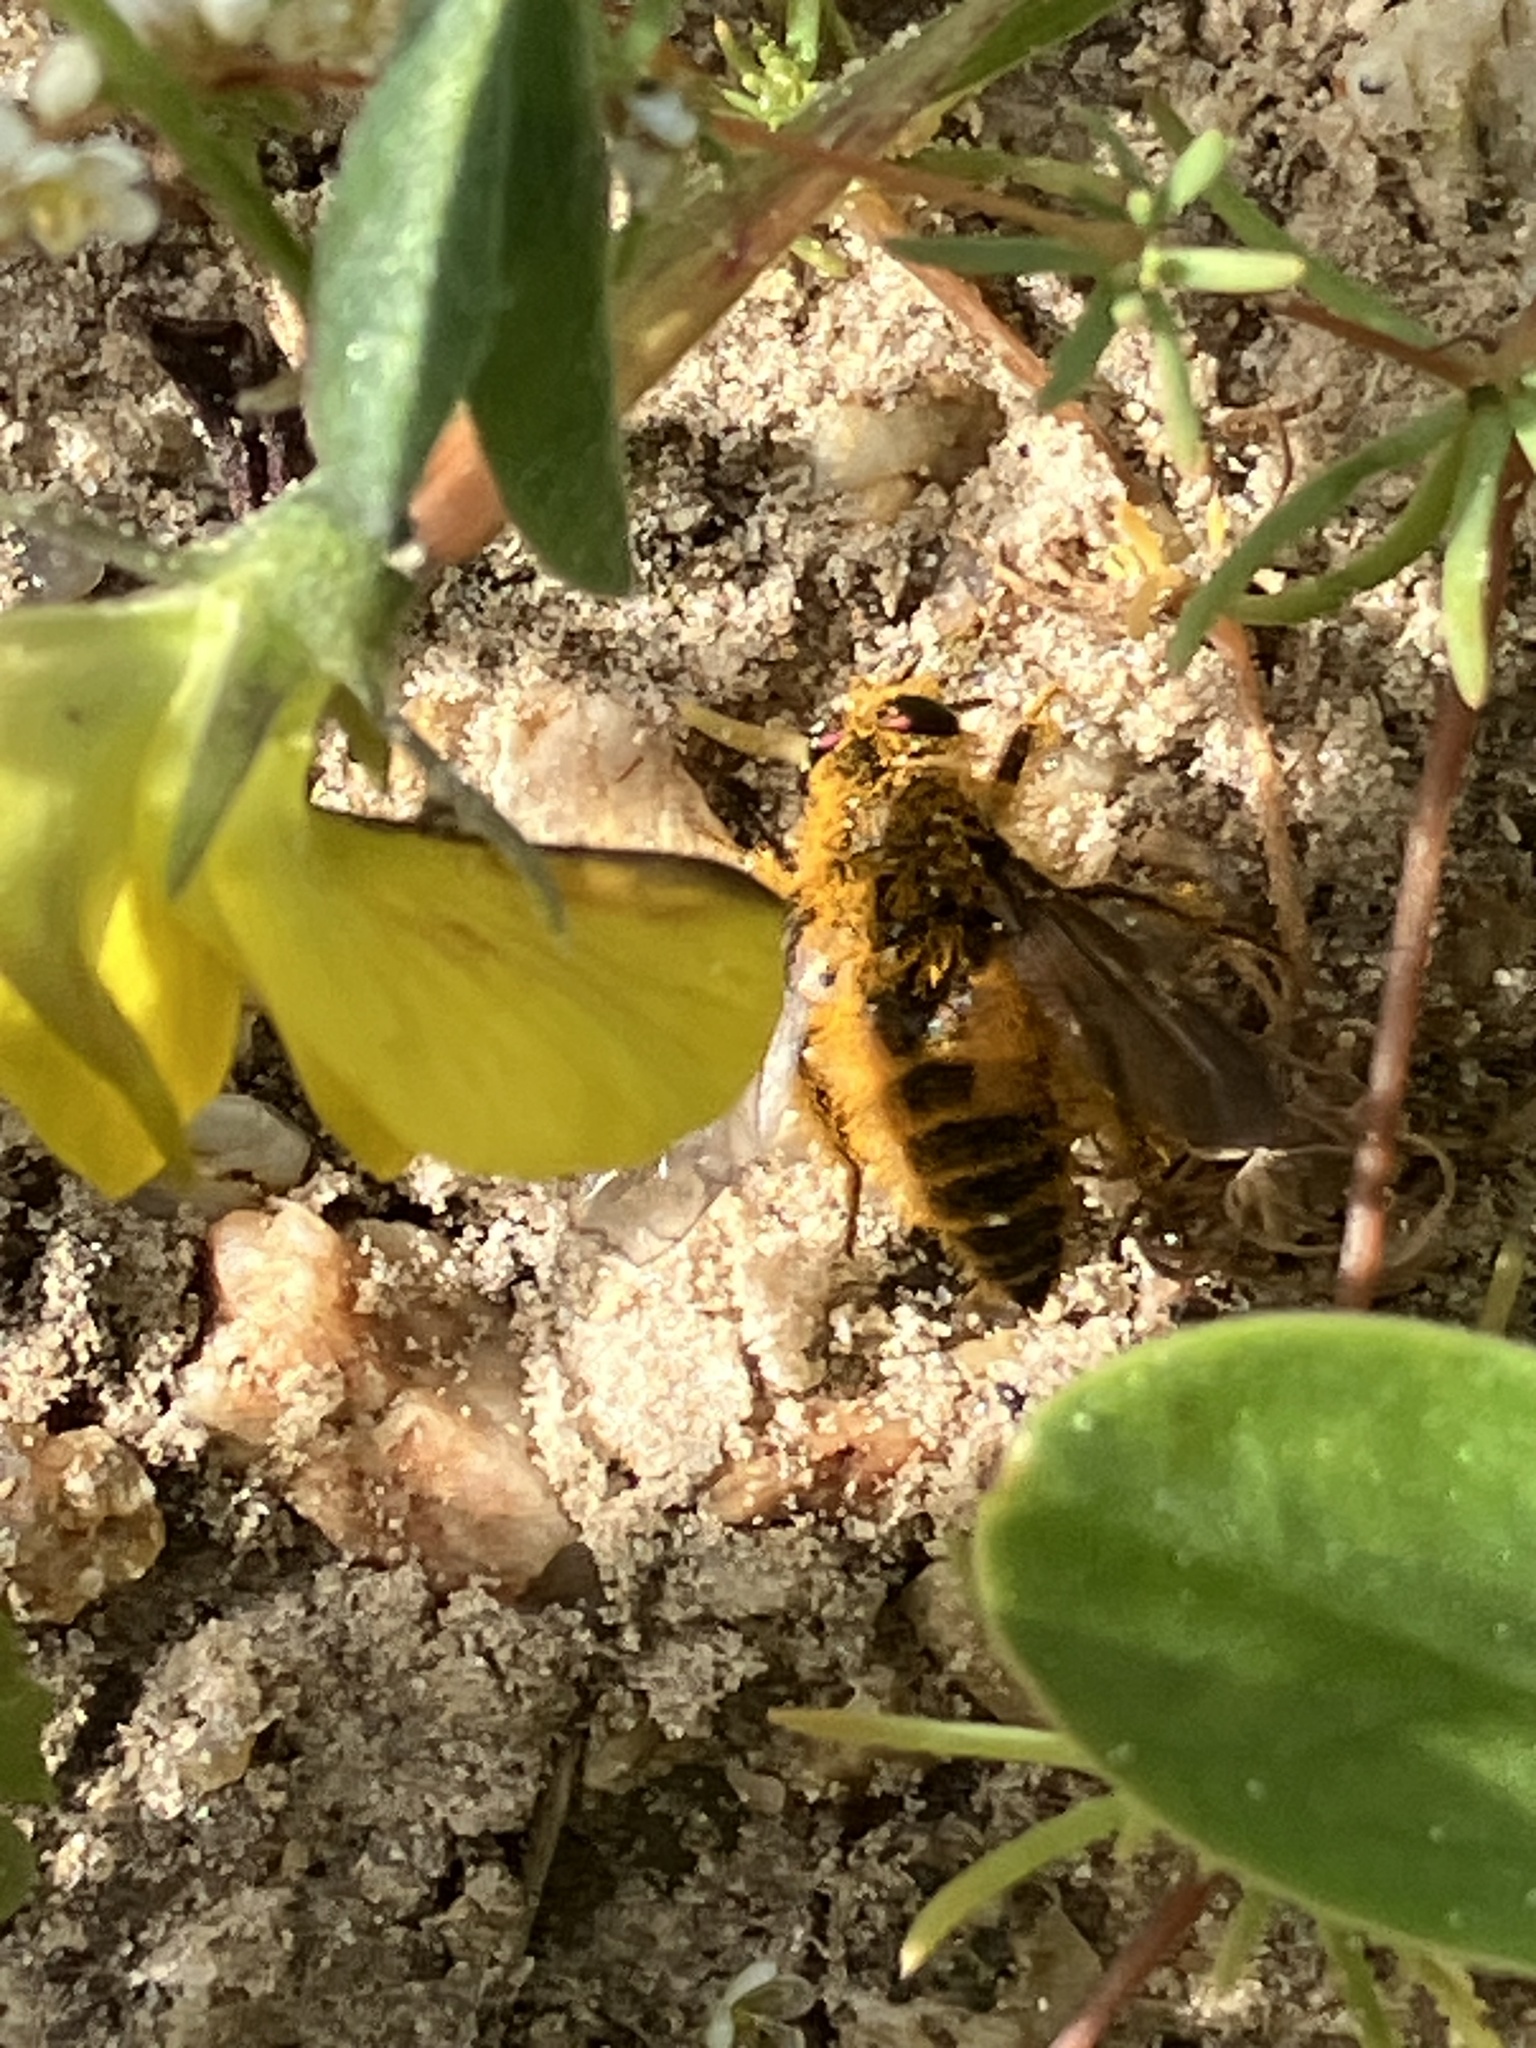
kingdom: Animalia
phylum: Arthropoda
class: Insecta
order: Diptera
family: Tabanidae
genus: Rhigioglossa
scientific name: Rhigioglossa nitens
